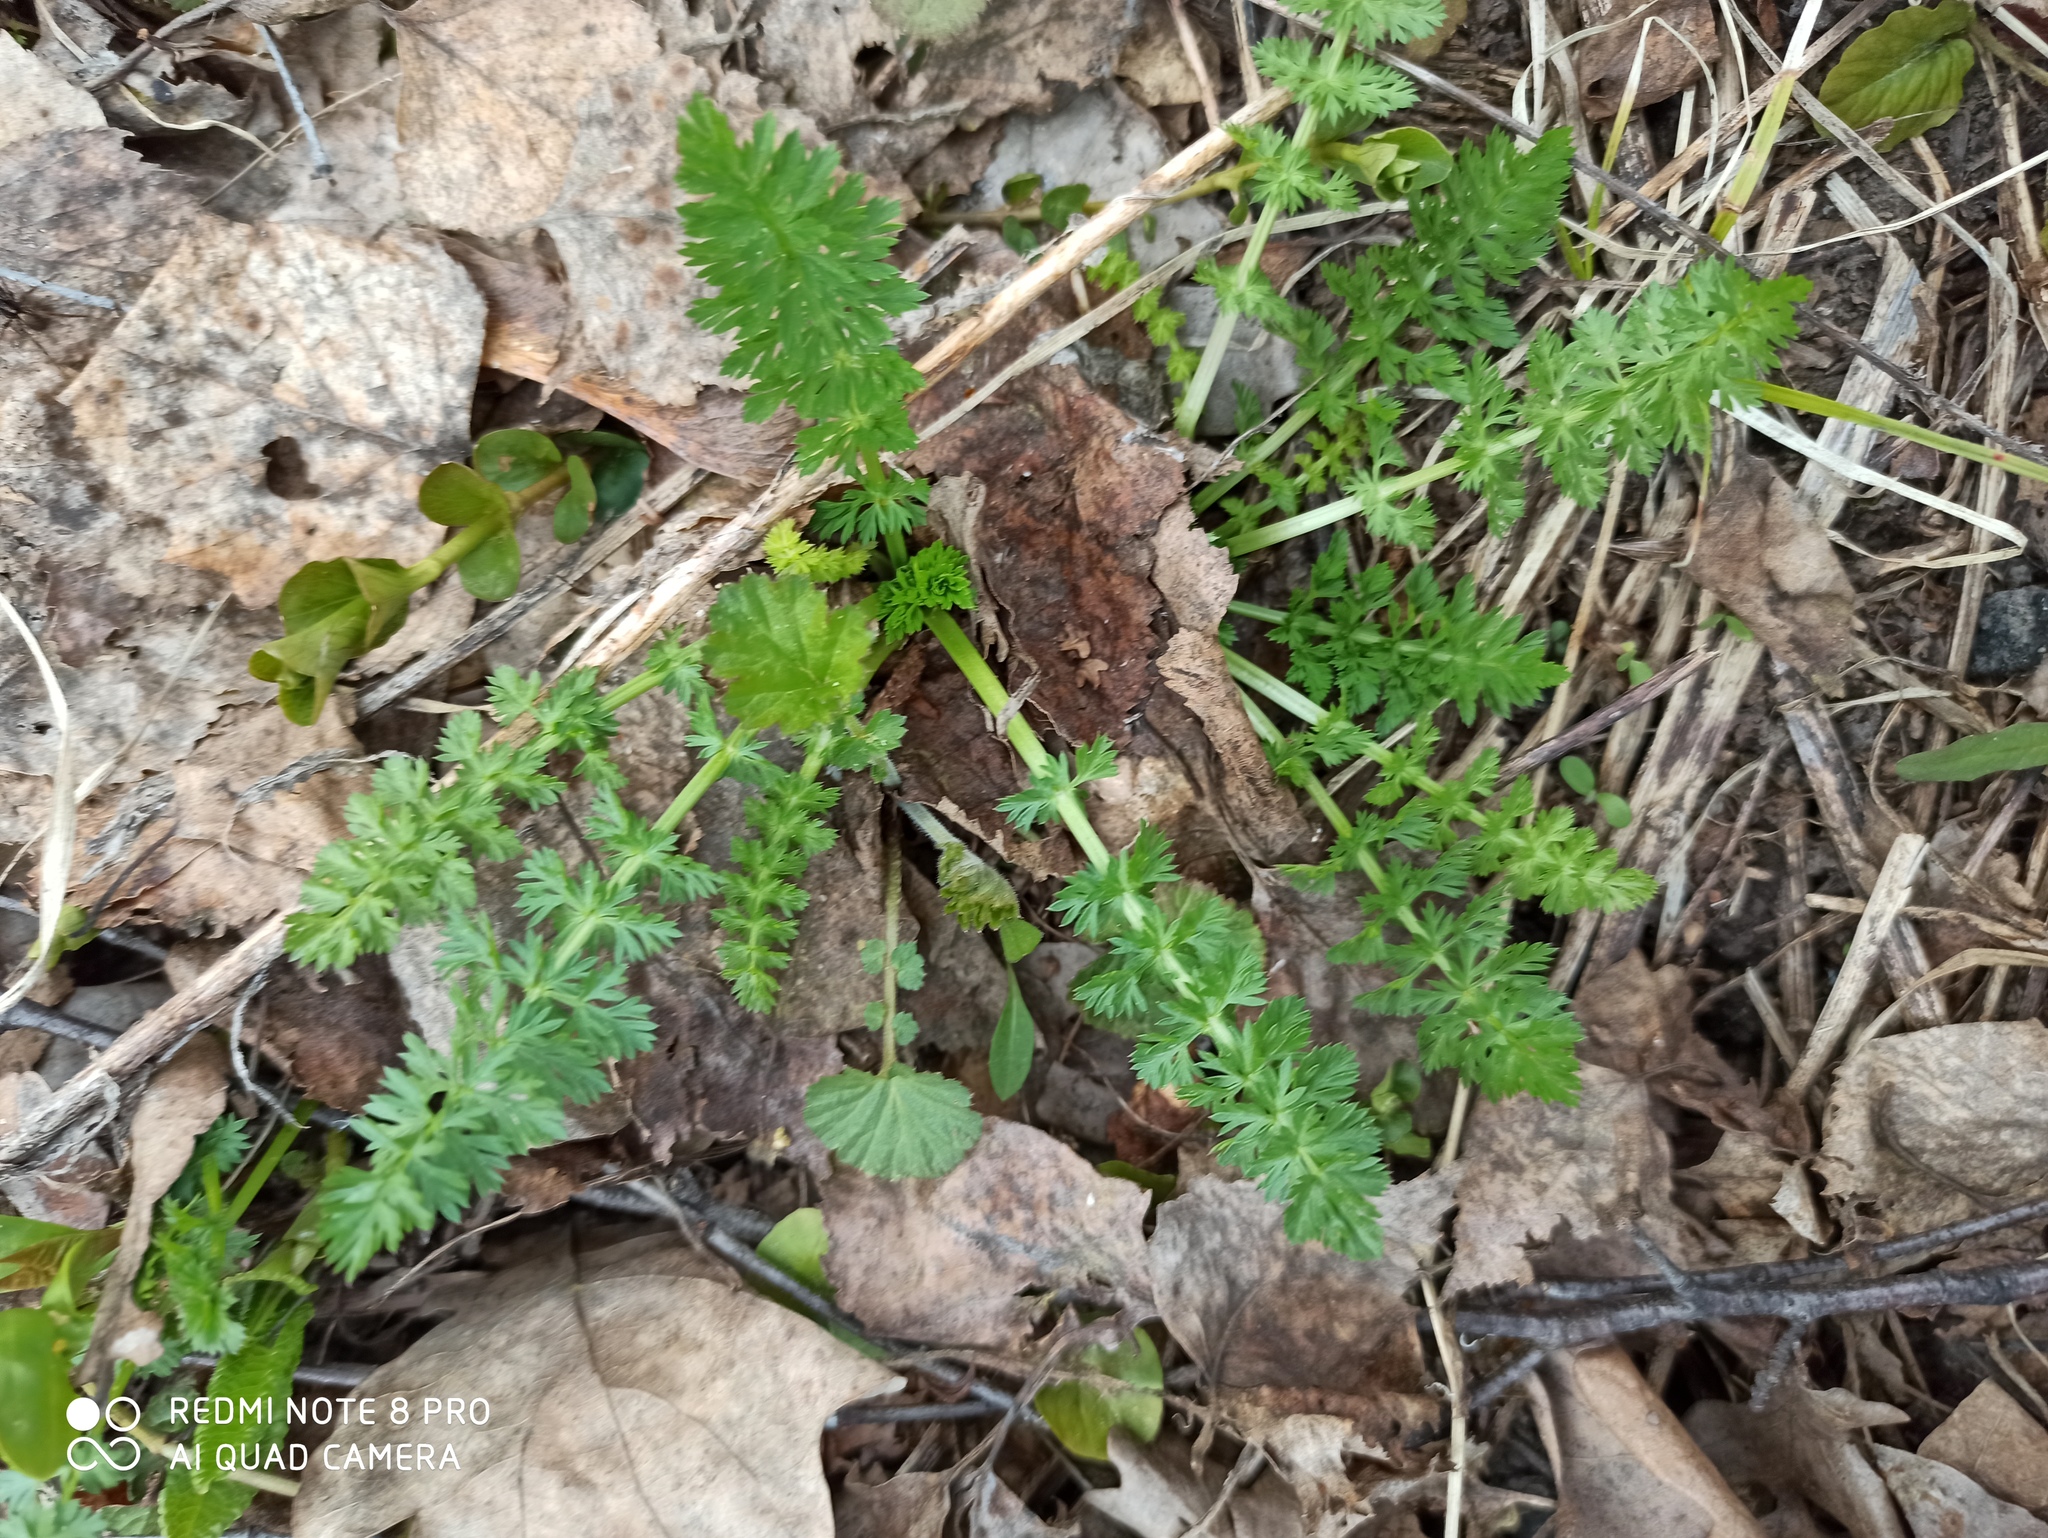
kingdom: Plantae
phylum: Tracheophyta
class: Magnoliopsida
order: Apiales
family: Apiaceae
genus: Carum
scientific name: Carum carvi
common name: Caraway
